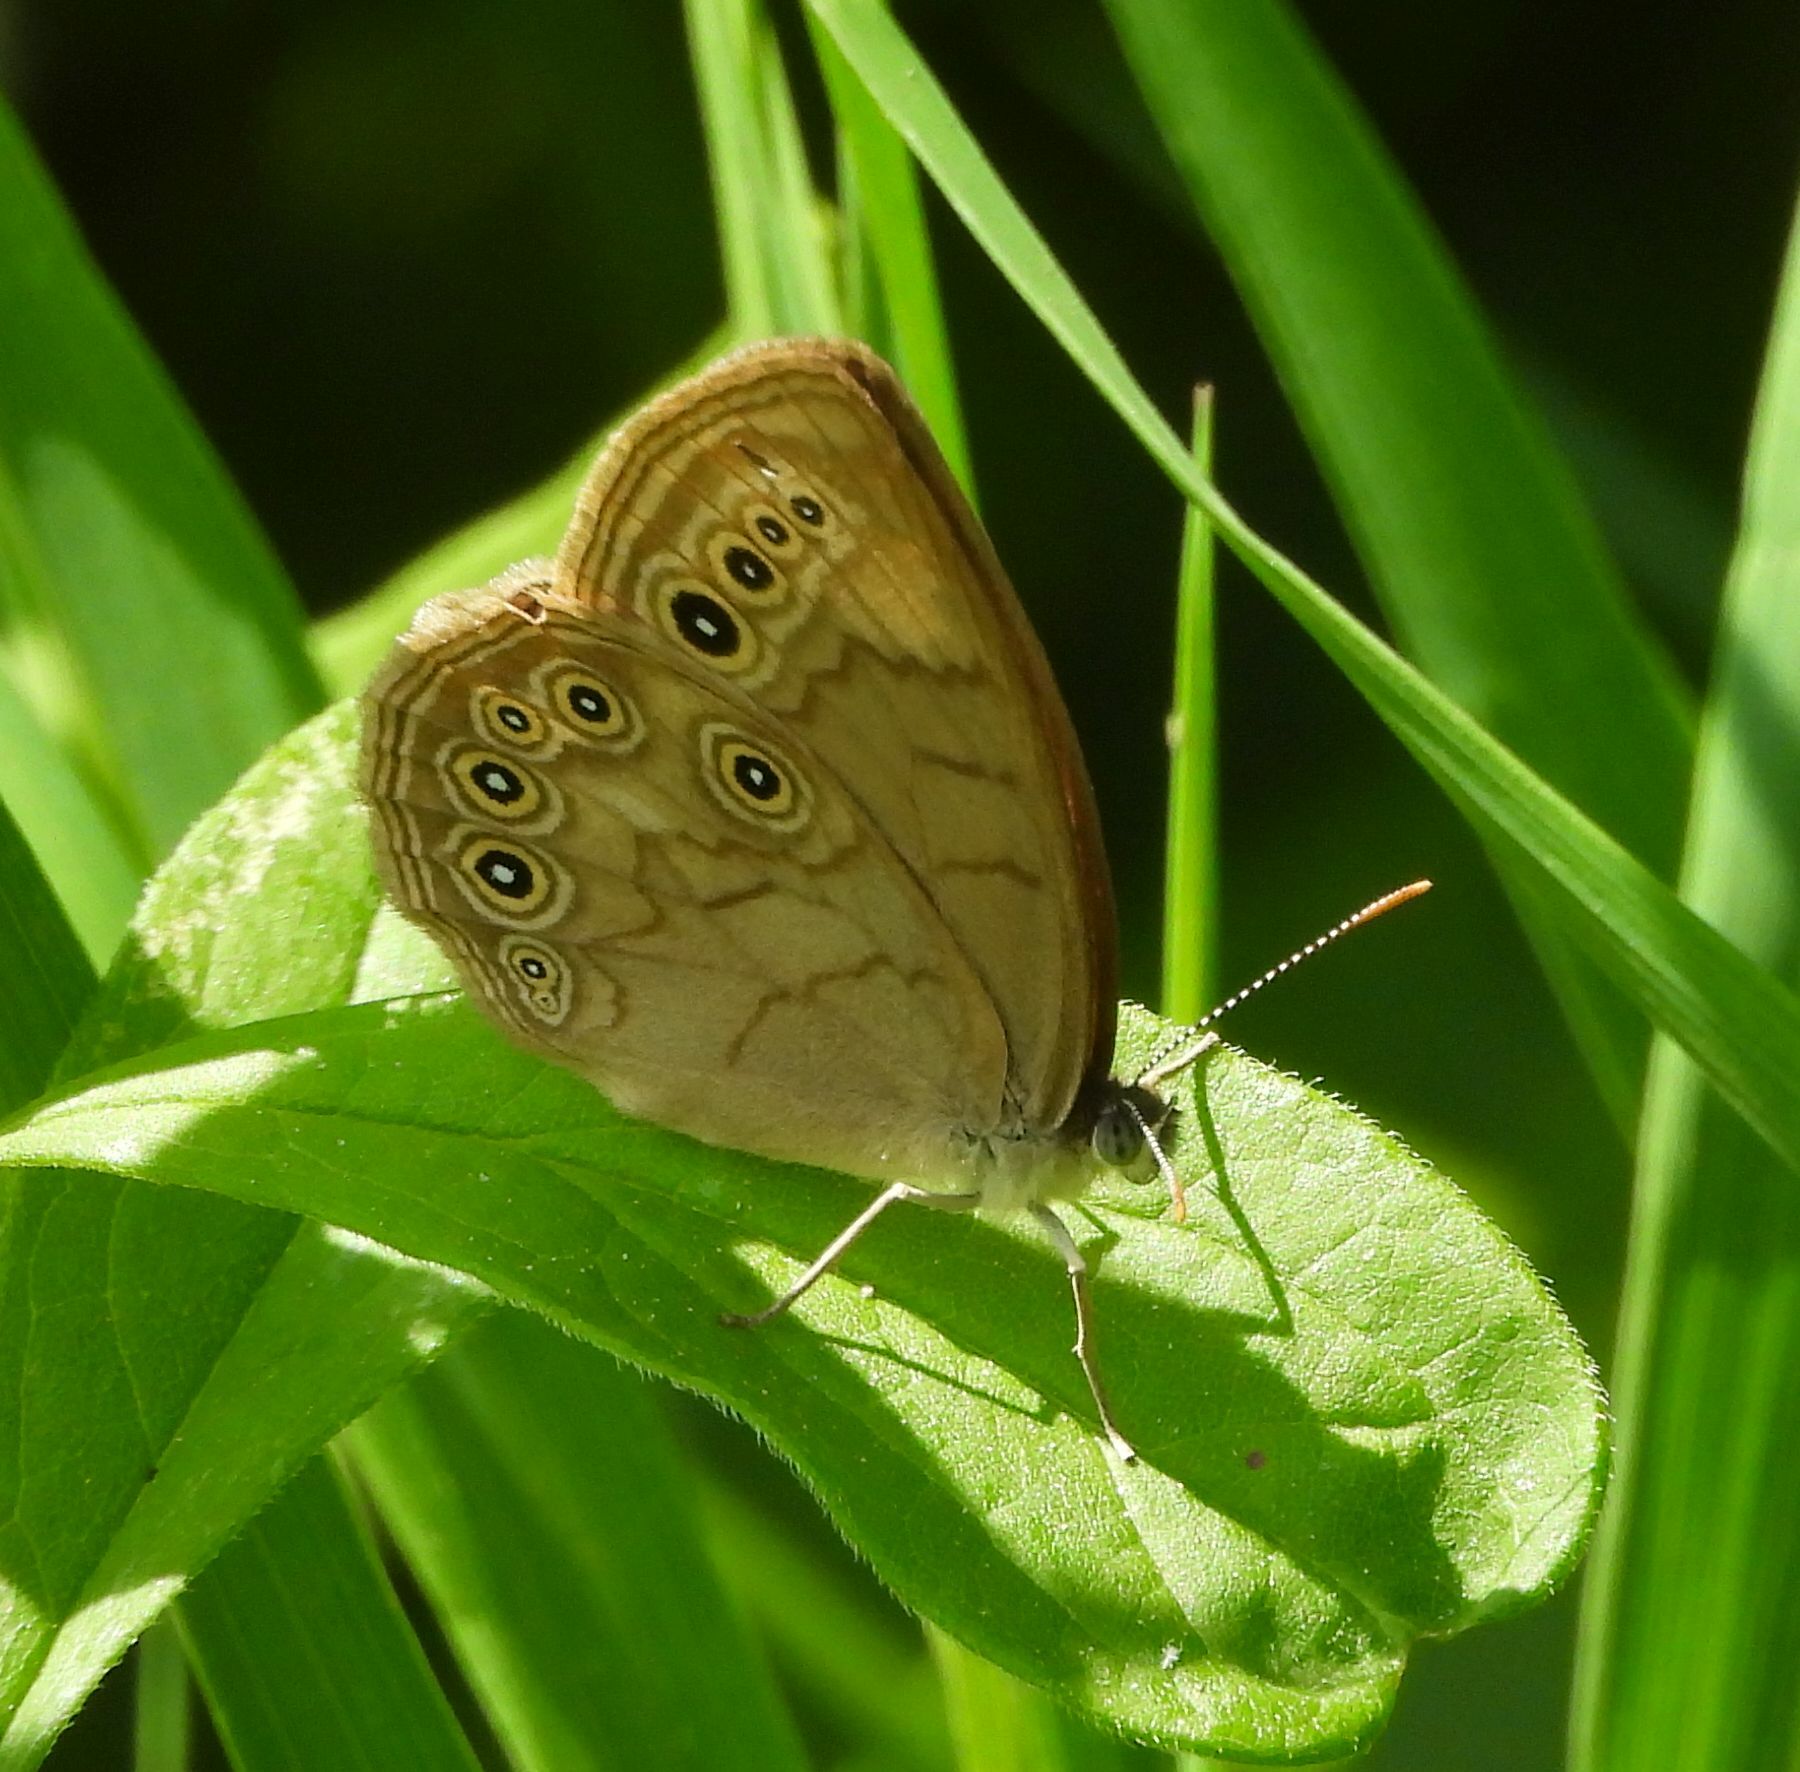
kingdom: Animalia
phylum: Arthropoda
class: Insecta
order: Lepidoptera
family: Nymphalidae
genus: Lethe
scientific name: Lethe eurydice
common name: Eyed brown
